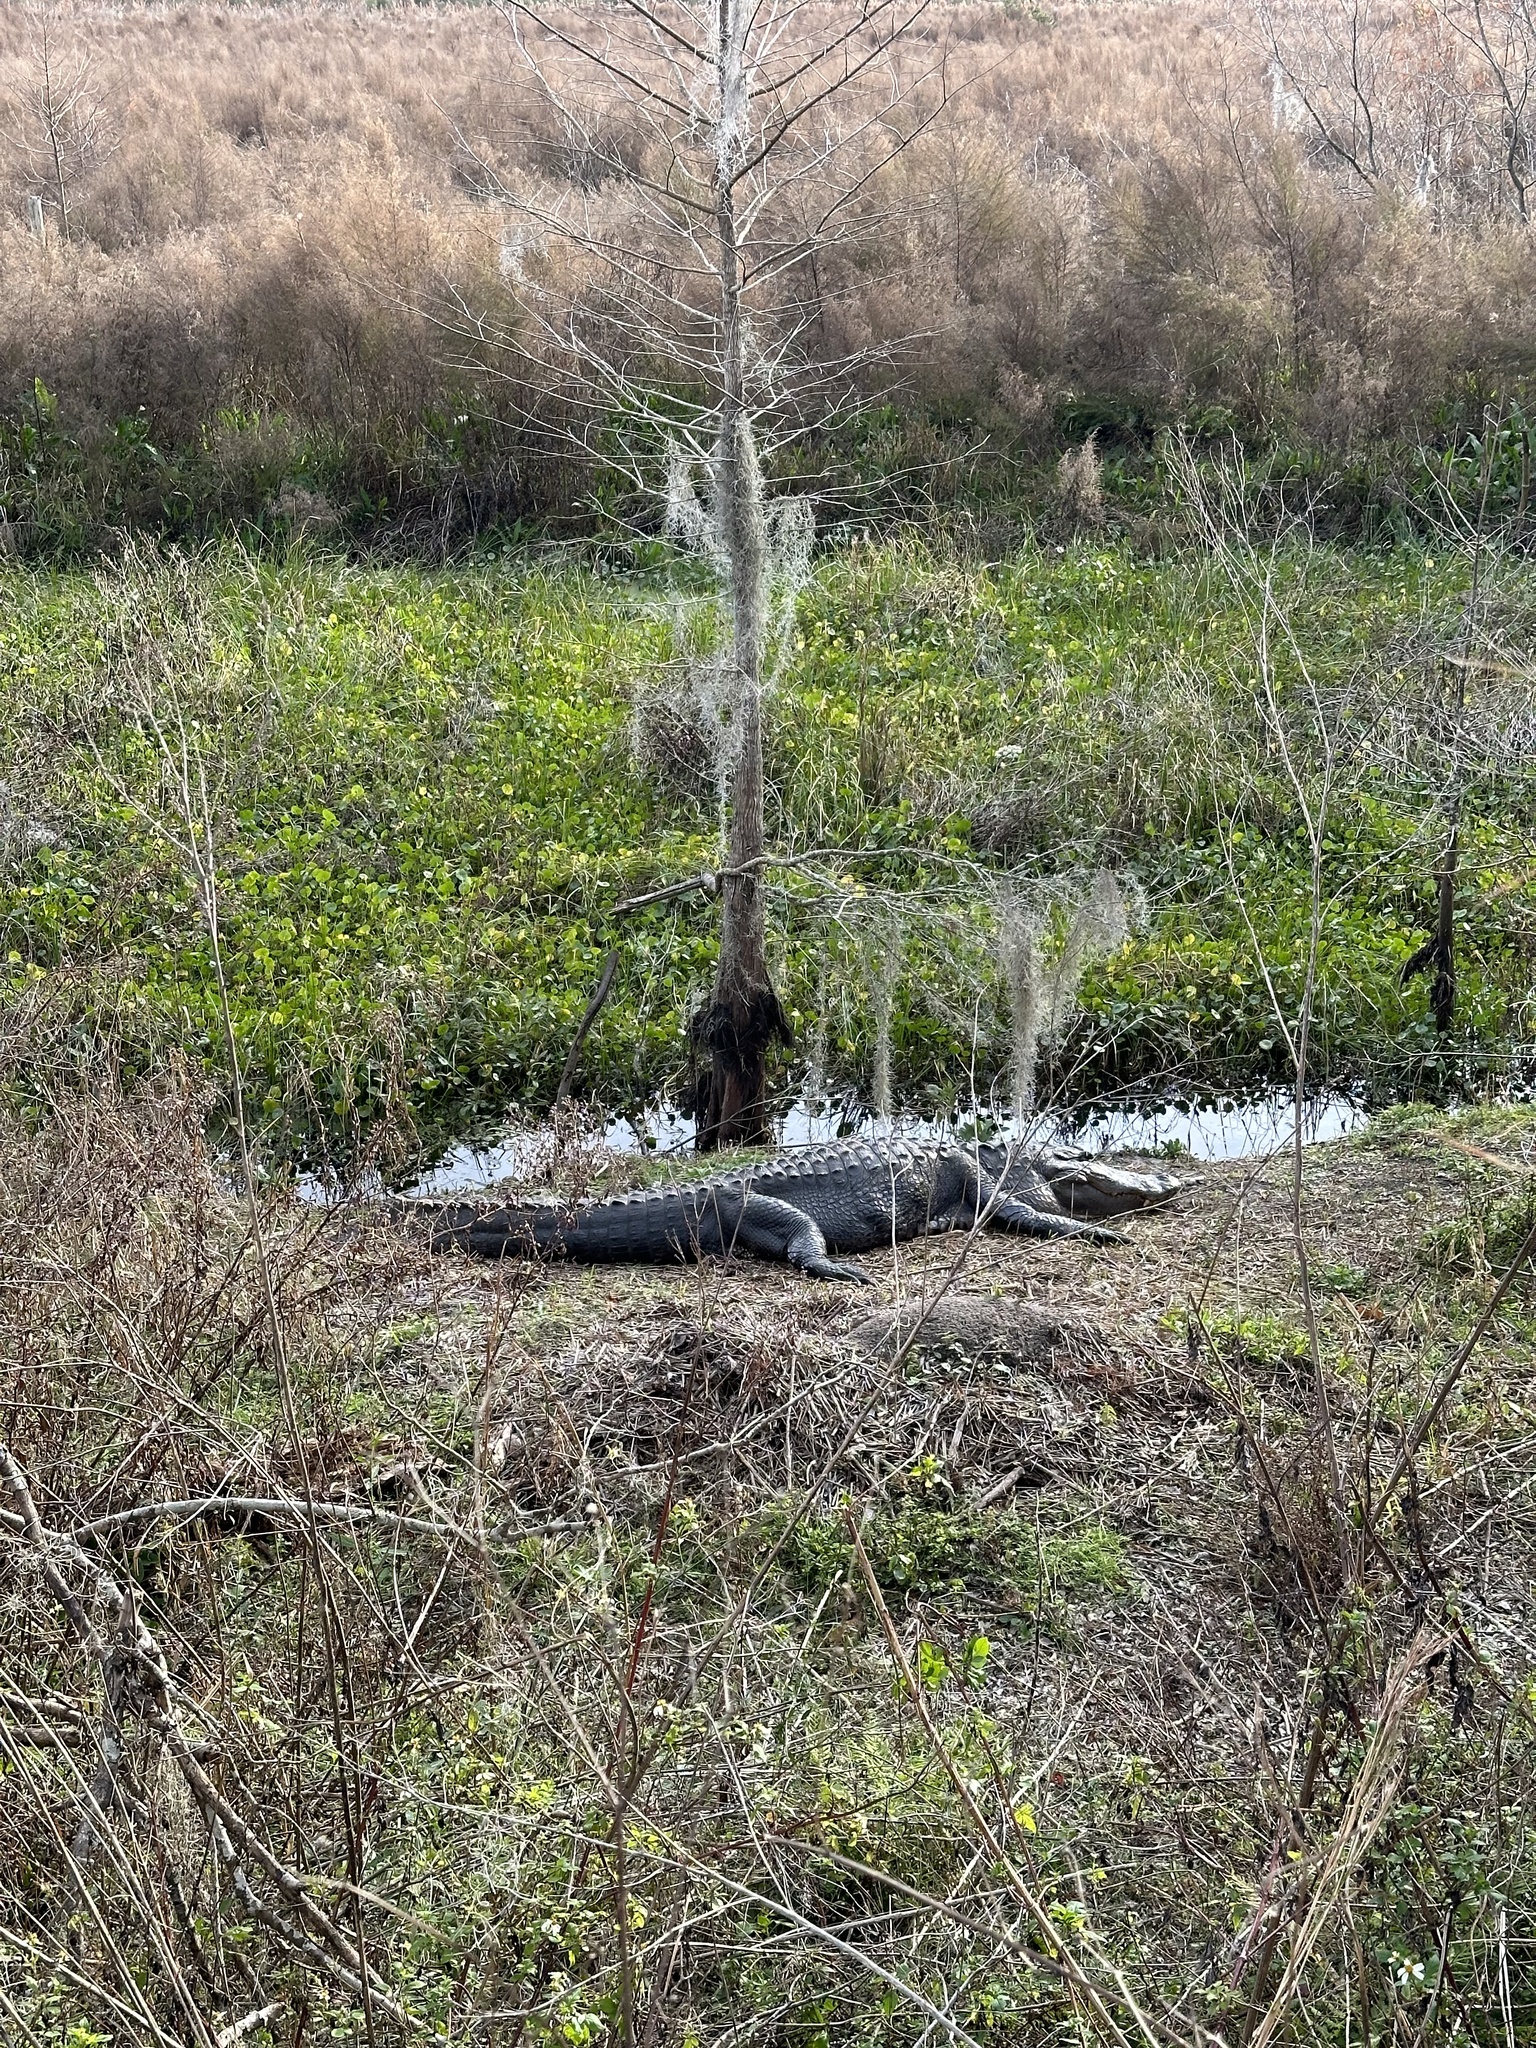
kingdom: Animalia
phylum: Chordata
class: Crocodylia
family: Alligatoridae
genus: Alligator
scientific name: Alligator mississippiensis
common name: American alligator
